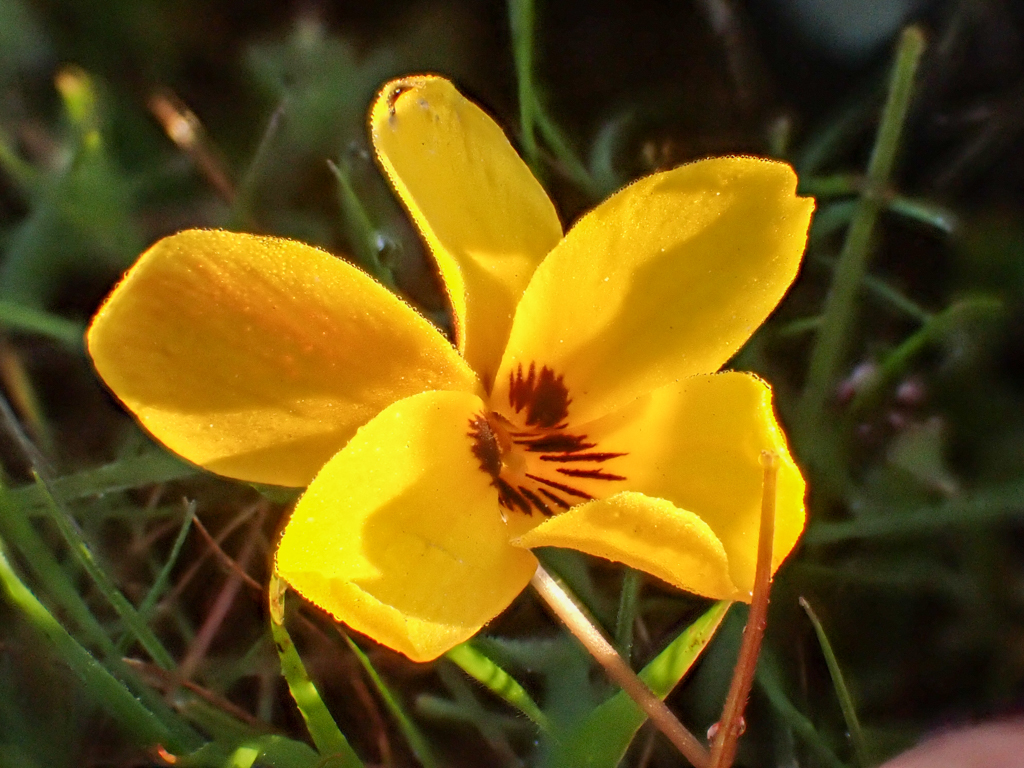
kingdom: Plantae
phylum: Tracheophyta
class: Magnoliopsida
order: Malpighiales
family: Violaceae
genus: Viola
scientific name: Viola douglasii
